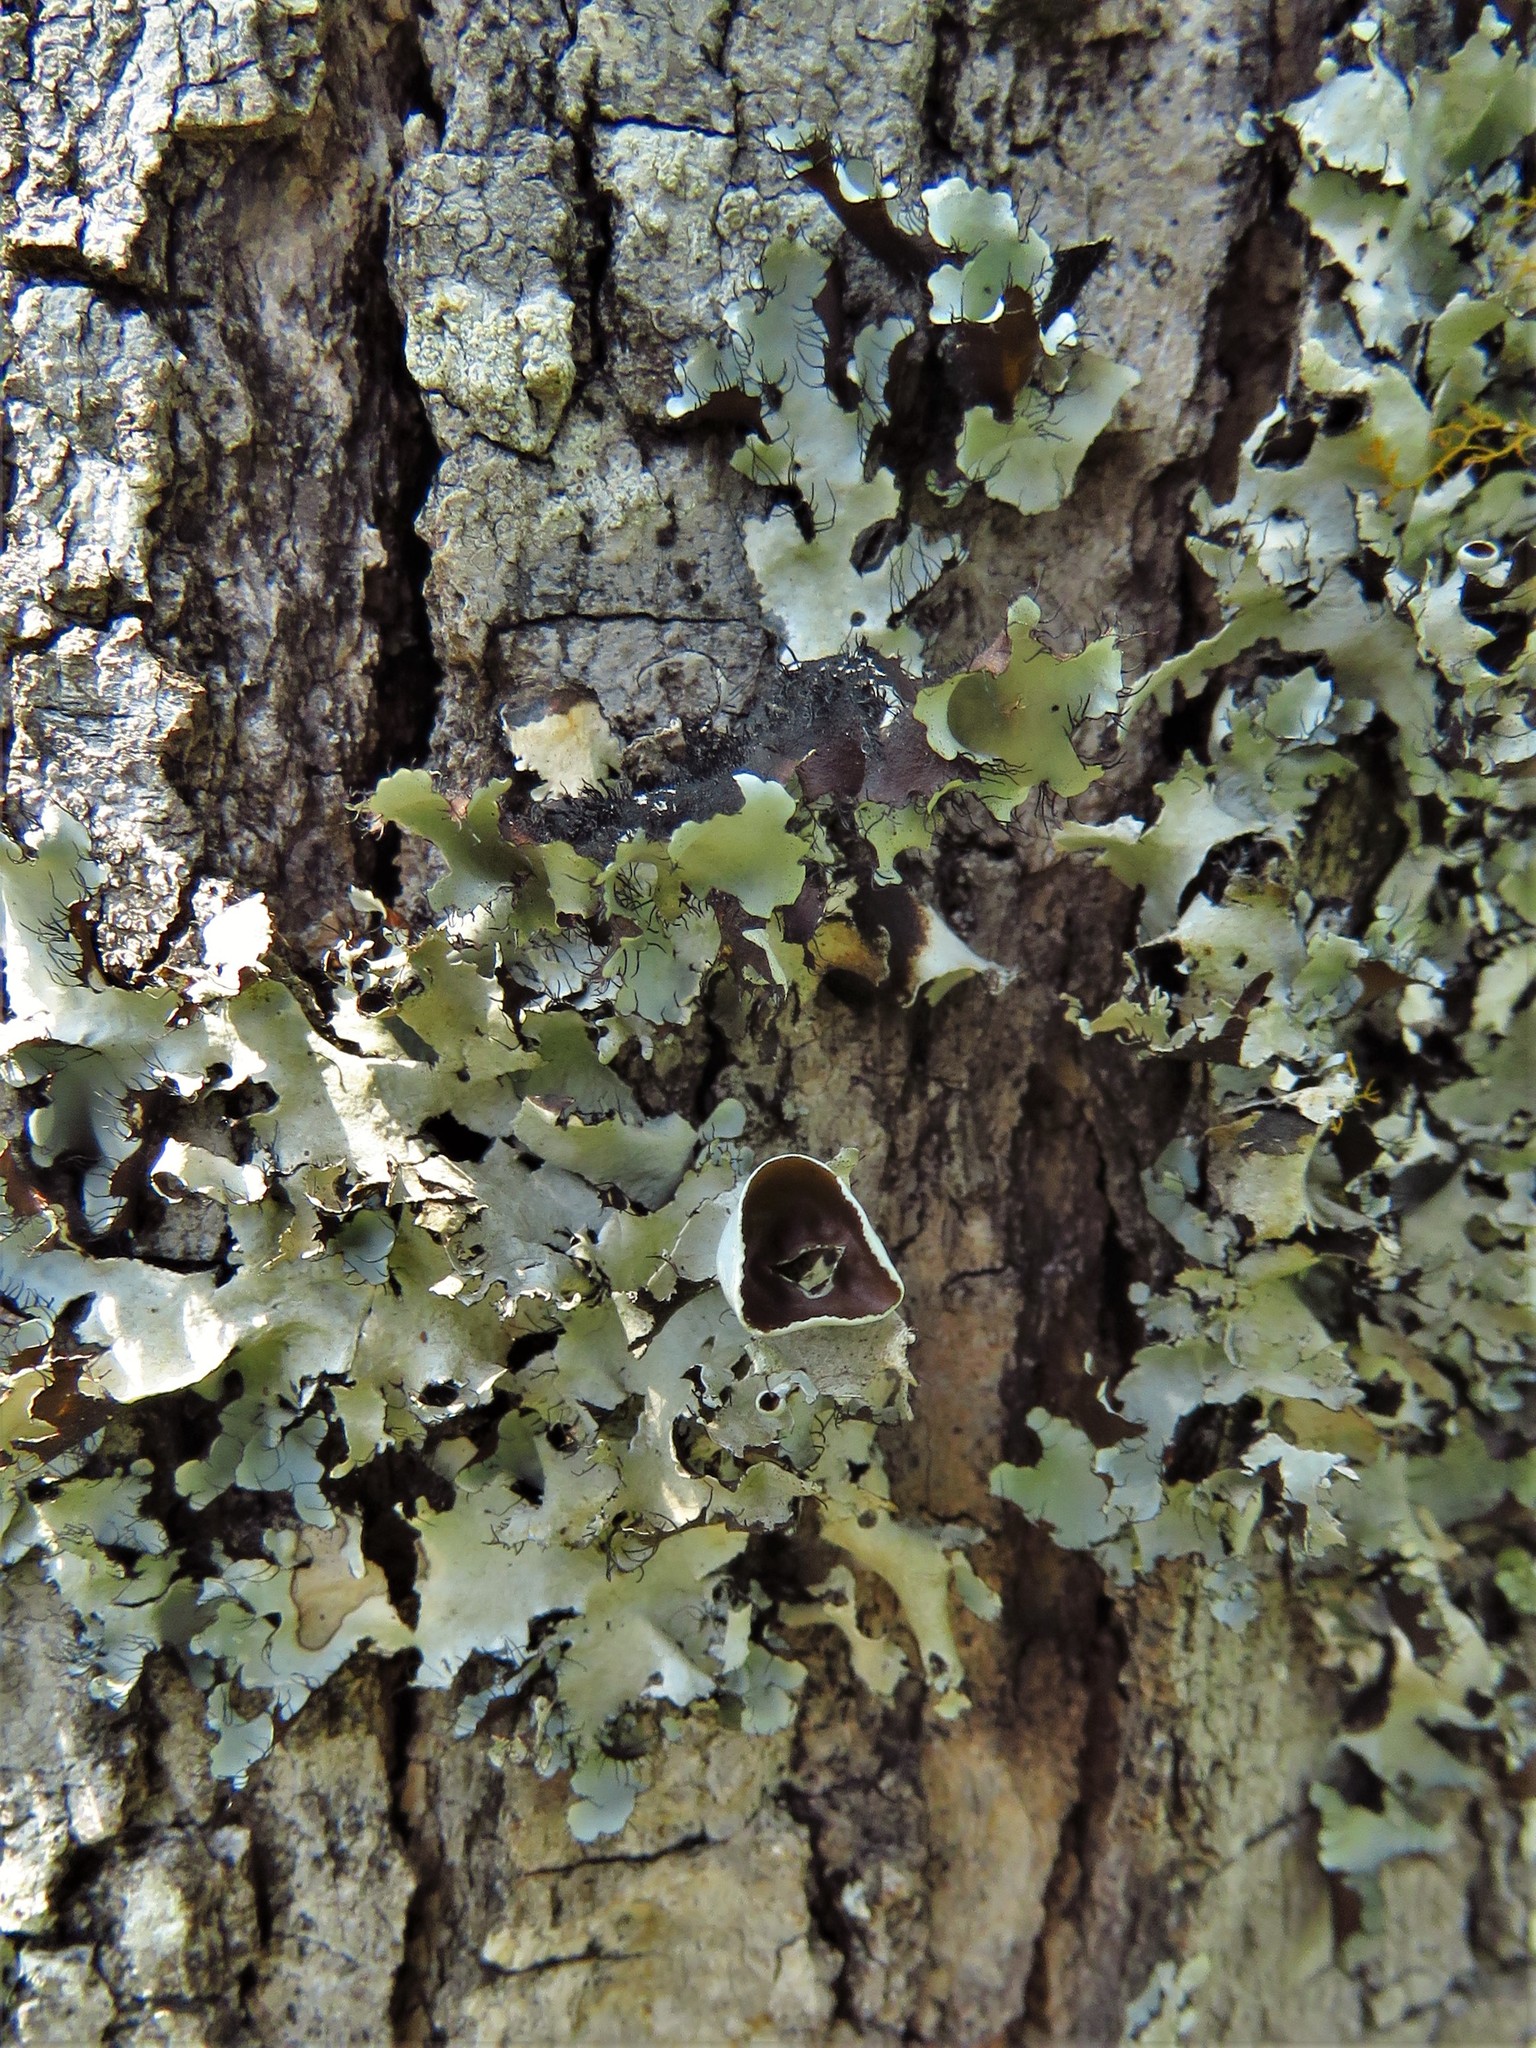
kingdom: Fungi
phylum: Ascomycota
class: Lecanoromycetes
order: Lecanorales
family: Parmeliaceae
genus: Parmotrema
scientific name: Parmotrema perforatum
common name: Perforated ruffle lichen
